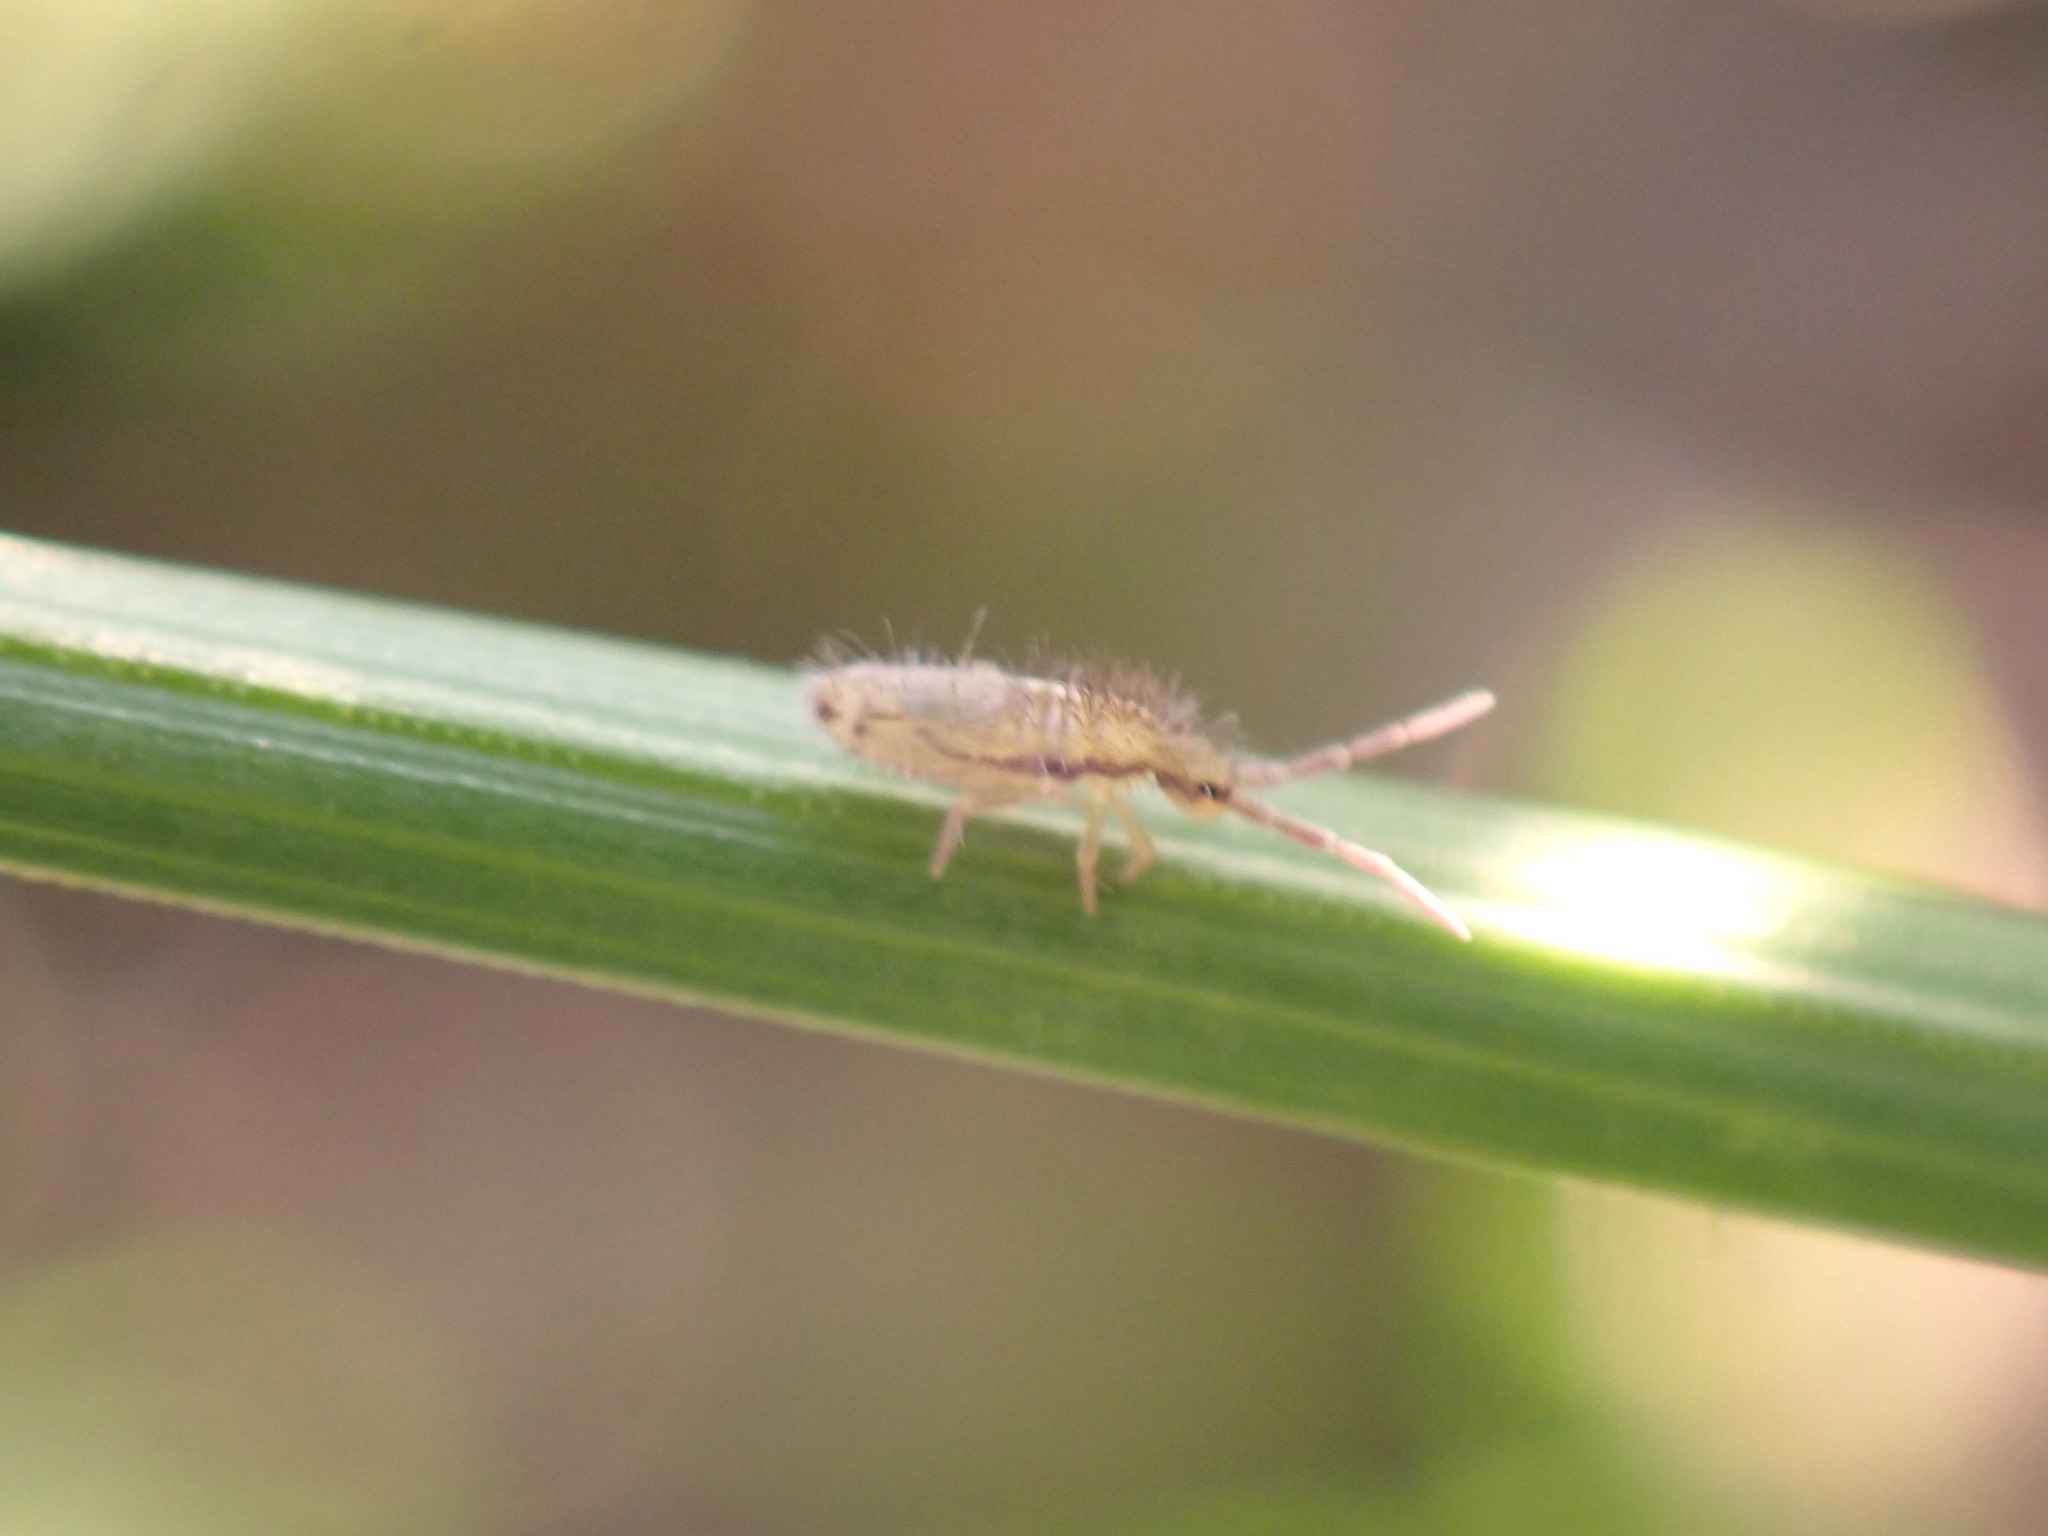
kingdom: Animalia
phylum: Arthropoda
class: Collembola
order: Entomobryomorpha
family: Entomobryidae
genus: Homidia
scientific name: Homidia socia
